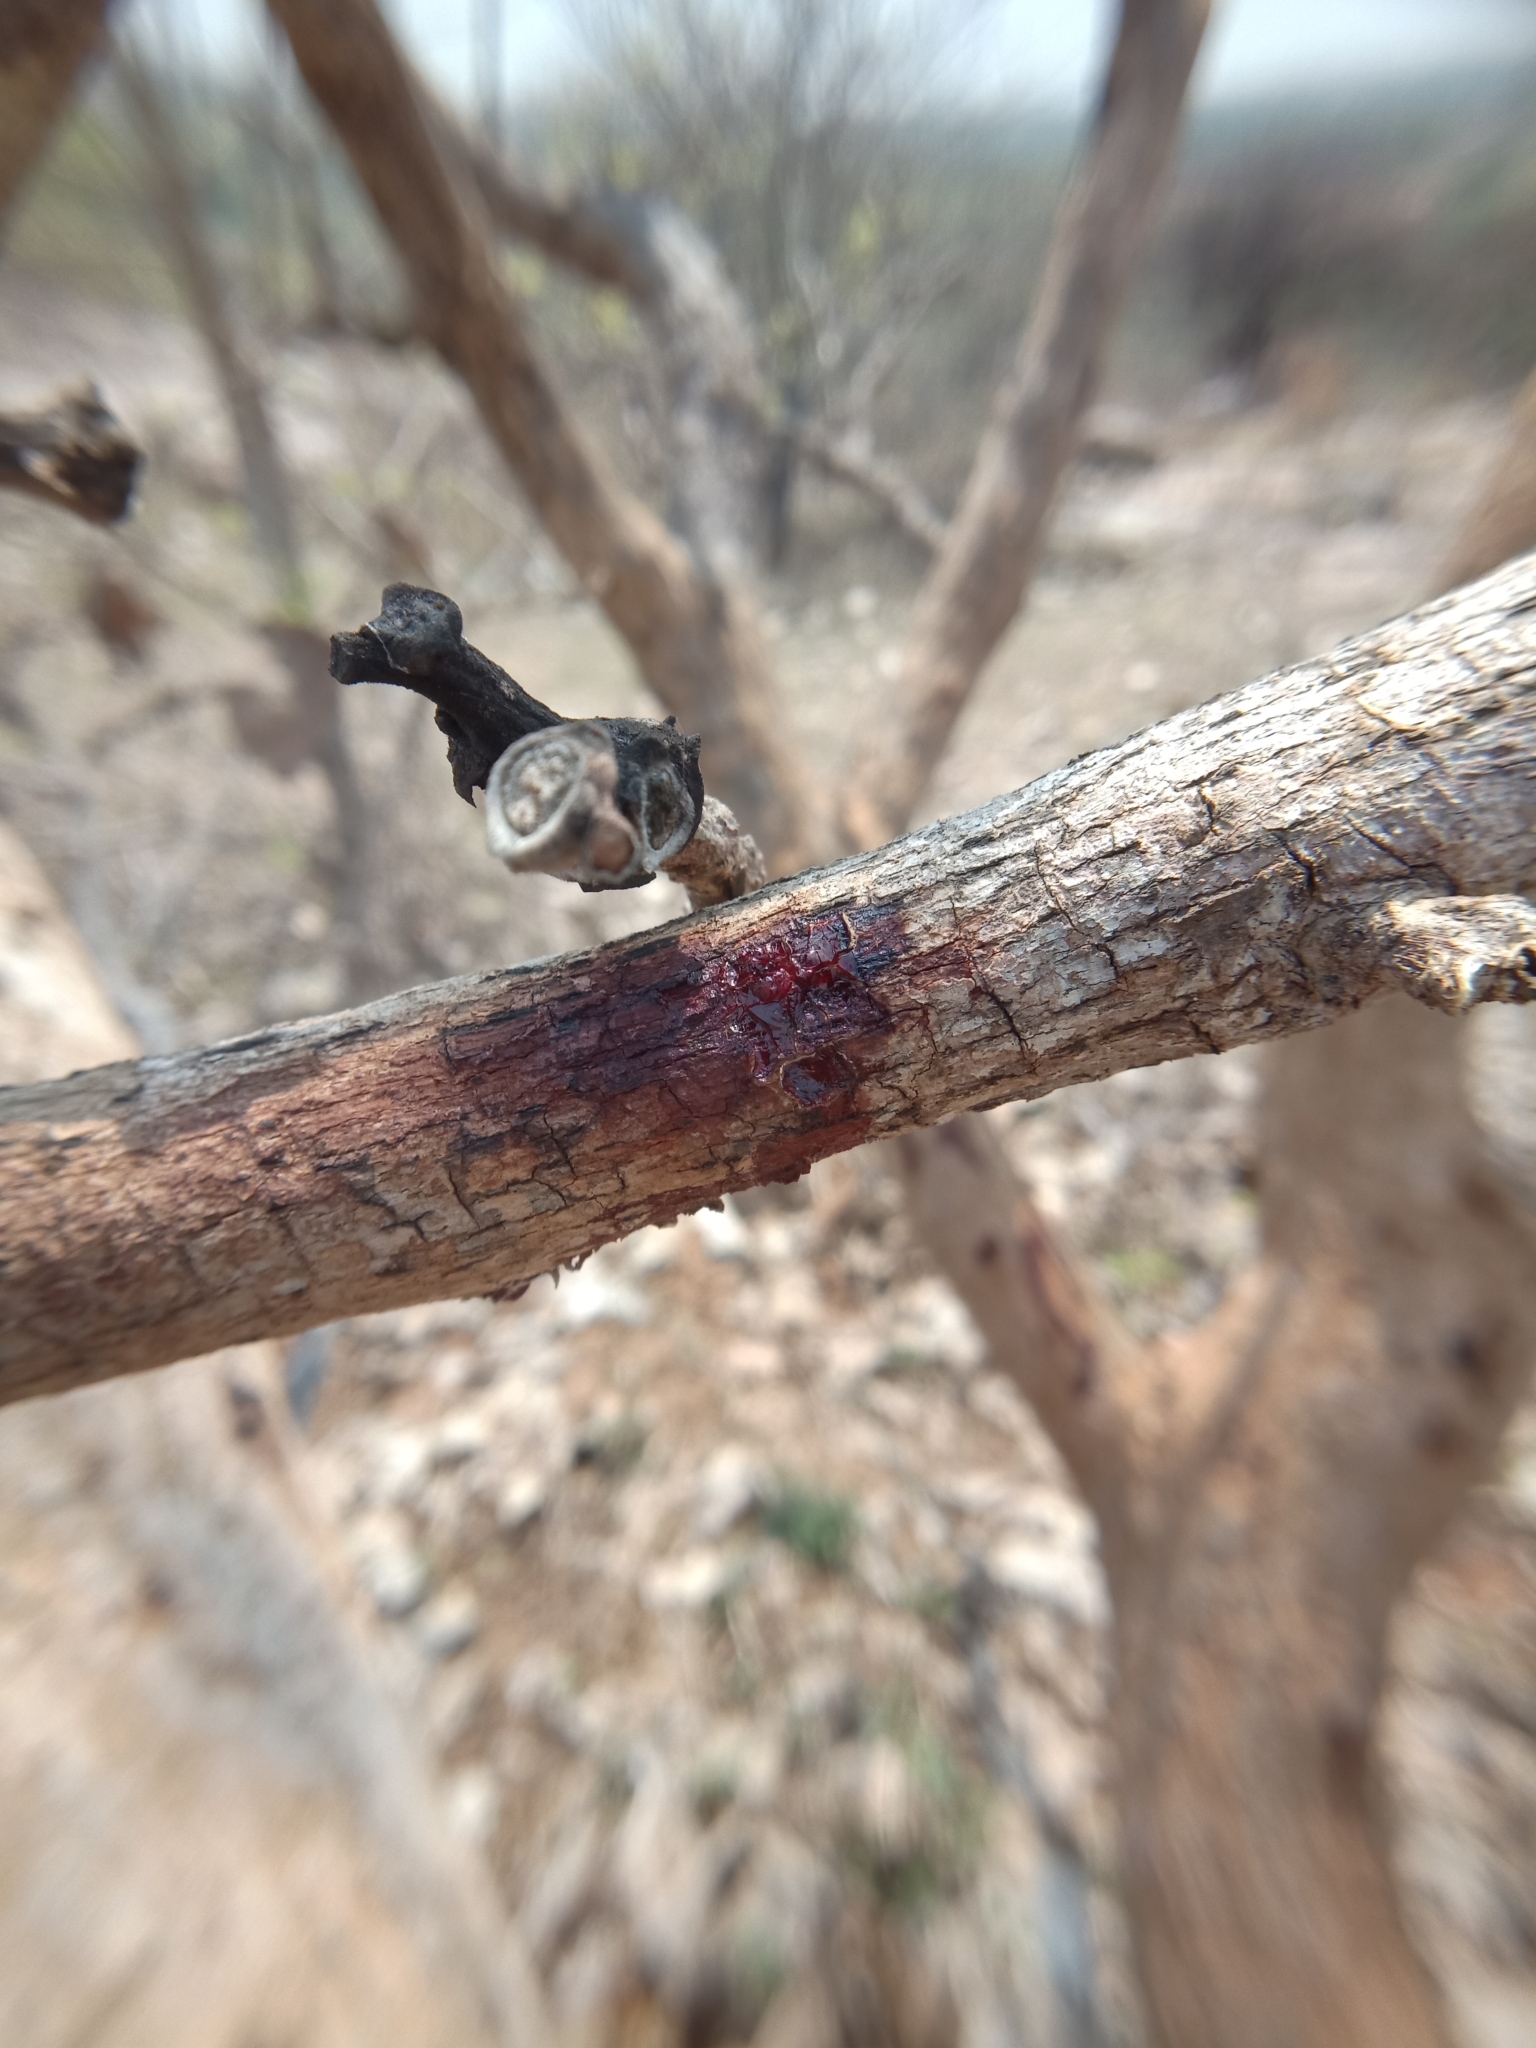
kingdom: Plantae
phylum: Tracheophyta
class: Magnoliopsida
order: Fabales
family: Fabaceae
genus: Butea
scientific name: Butea monosperma
